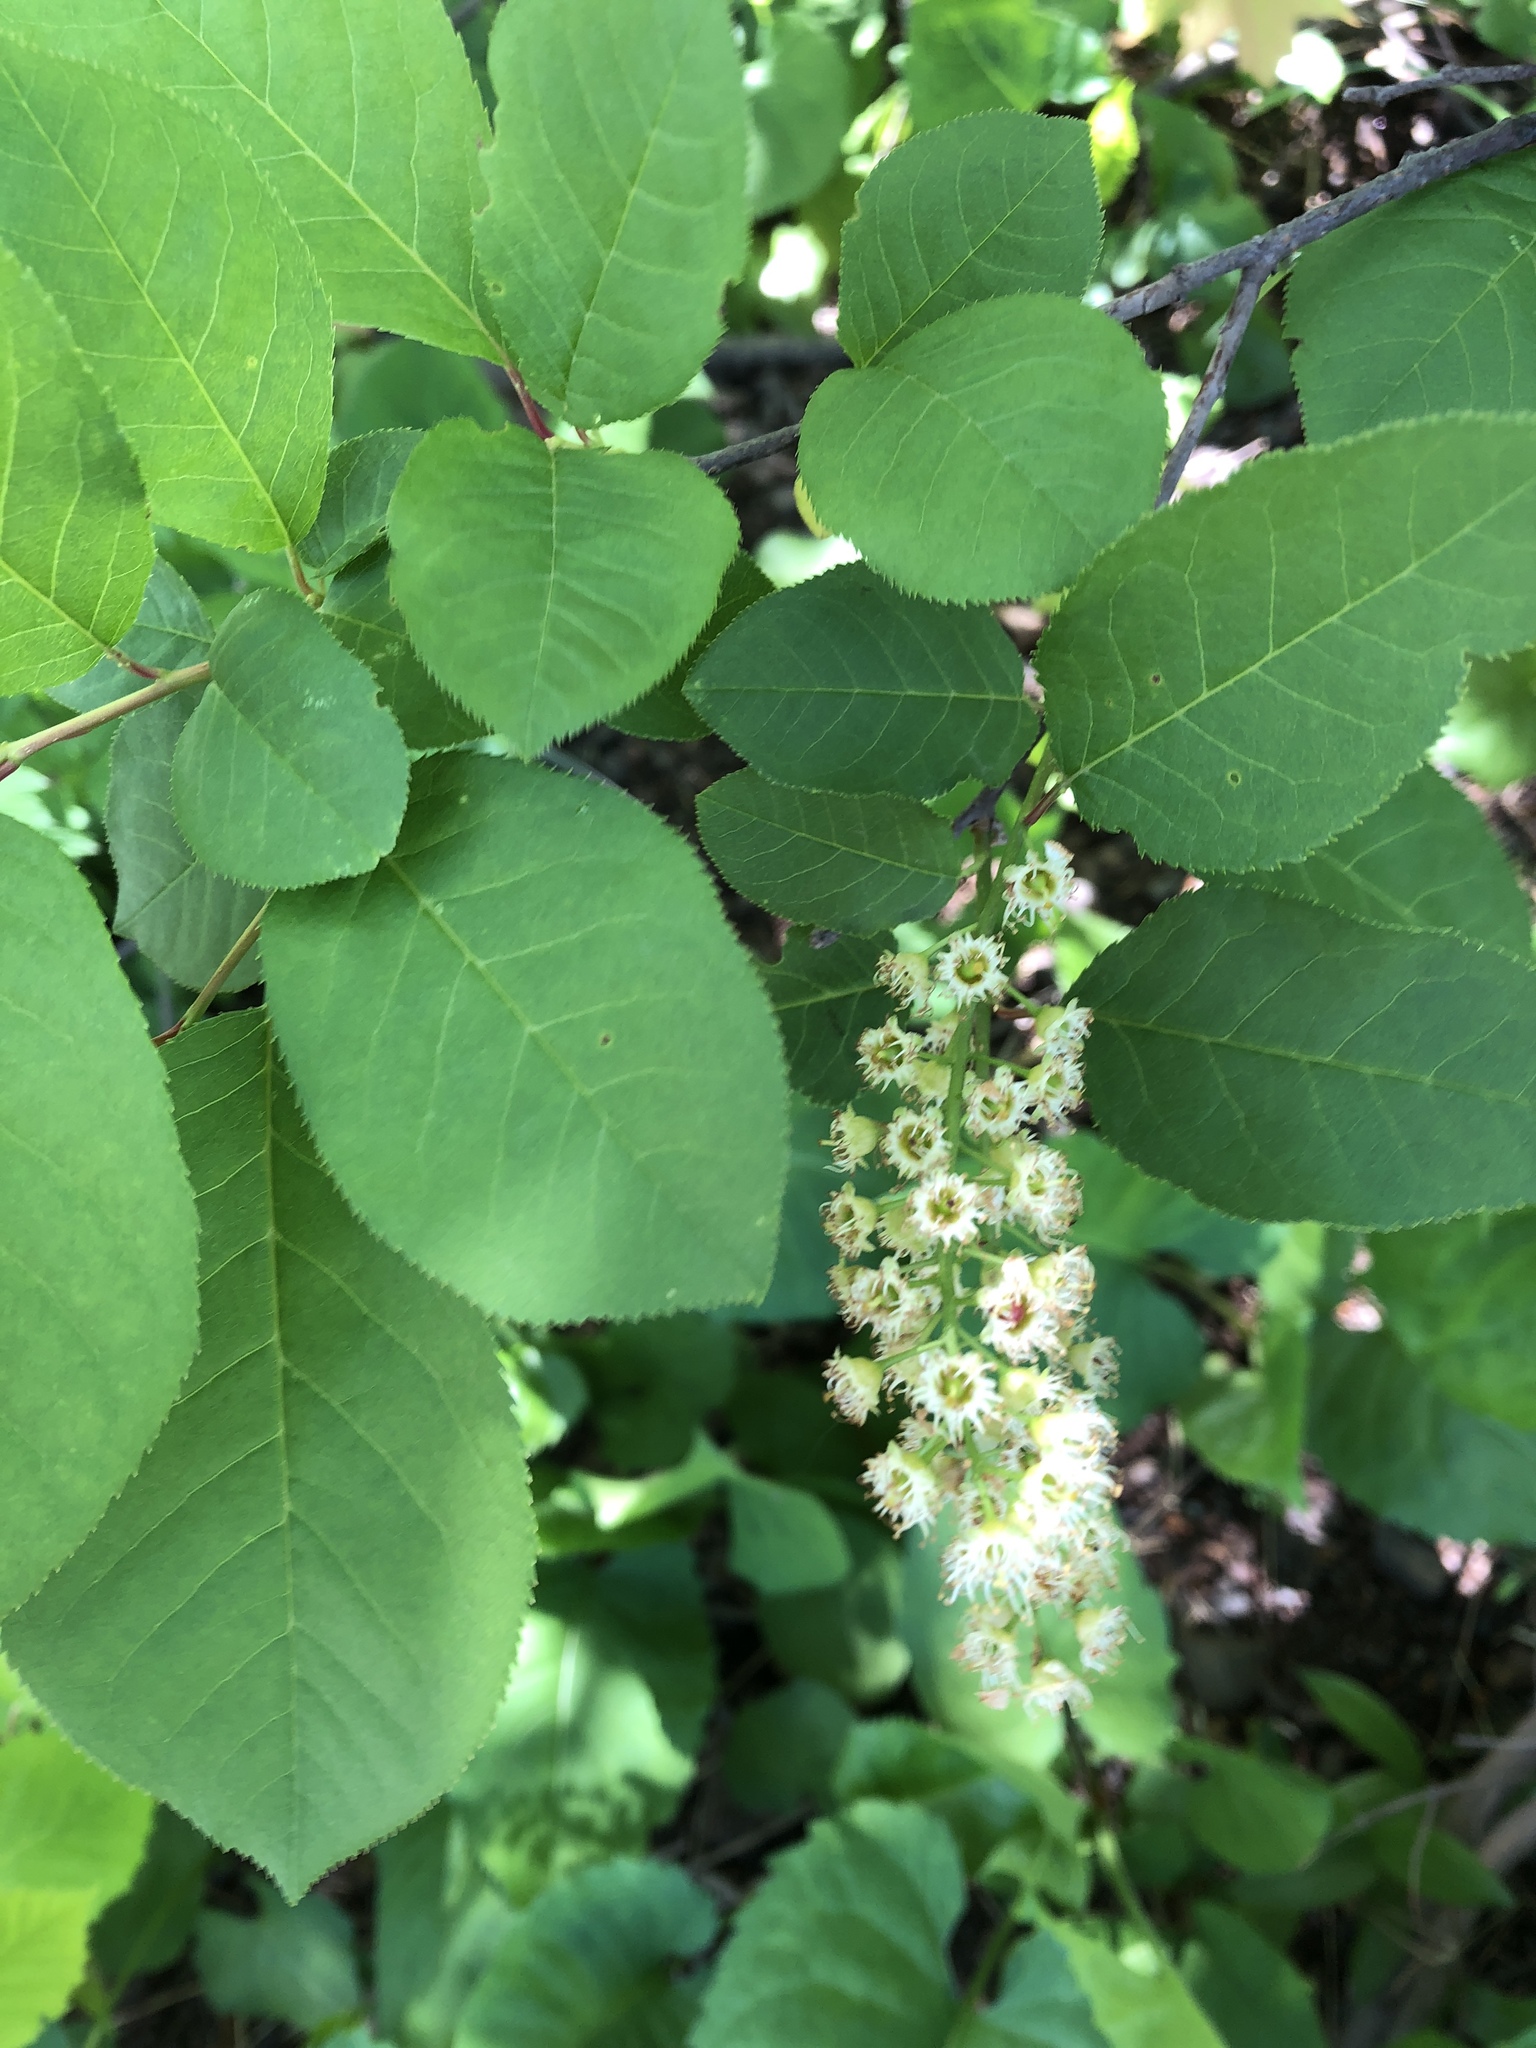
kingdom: Plantae
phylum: Tracheophyta
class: Magnoliopsida
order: Rosales
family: Rosaceae
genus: Prunus
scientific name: Prunus virginiana
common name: Chokecherry
